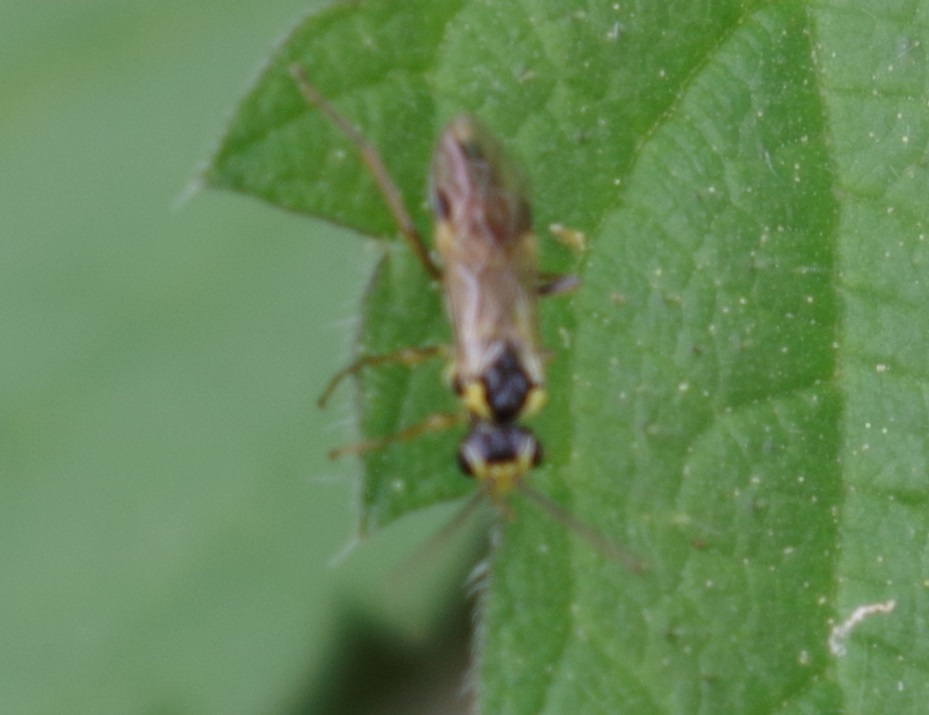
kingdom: Animalia
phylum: Arthropoda
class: Insecta
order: Hymenoptera
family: Tenthredinidae
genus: Aglaostigma
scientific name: Aglaostigma fulvipes
